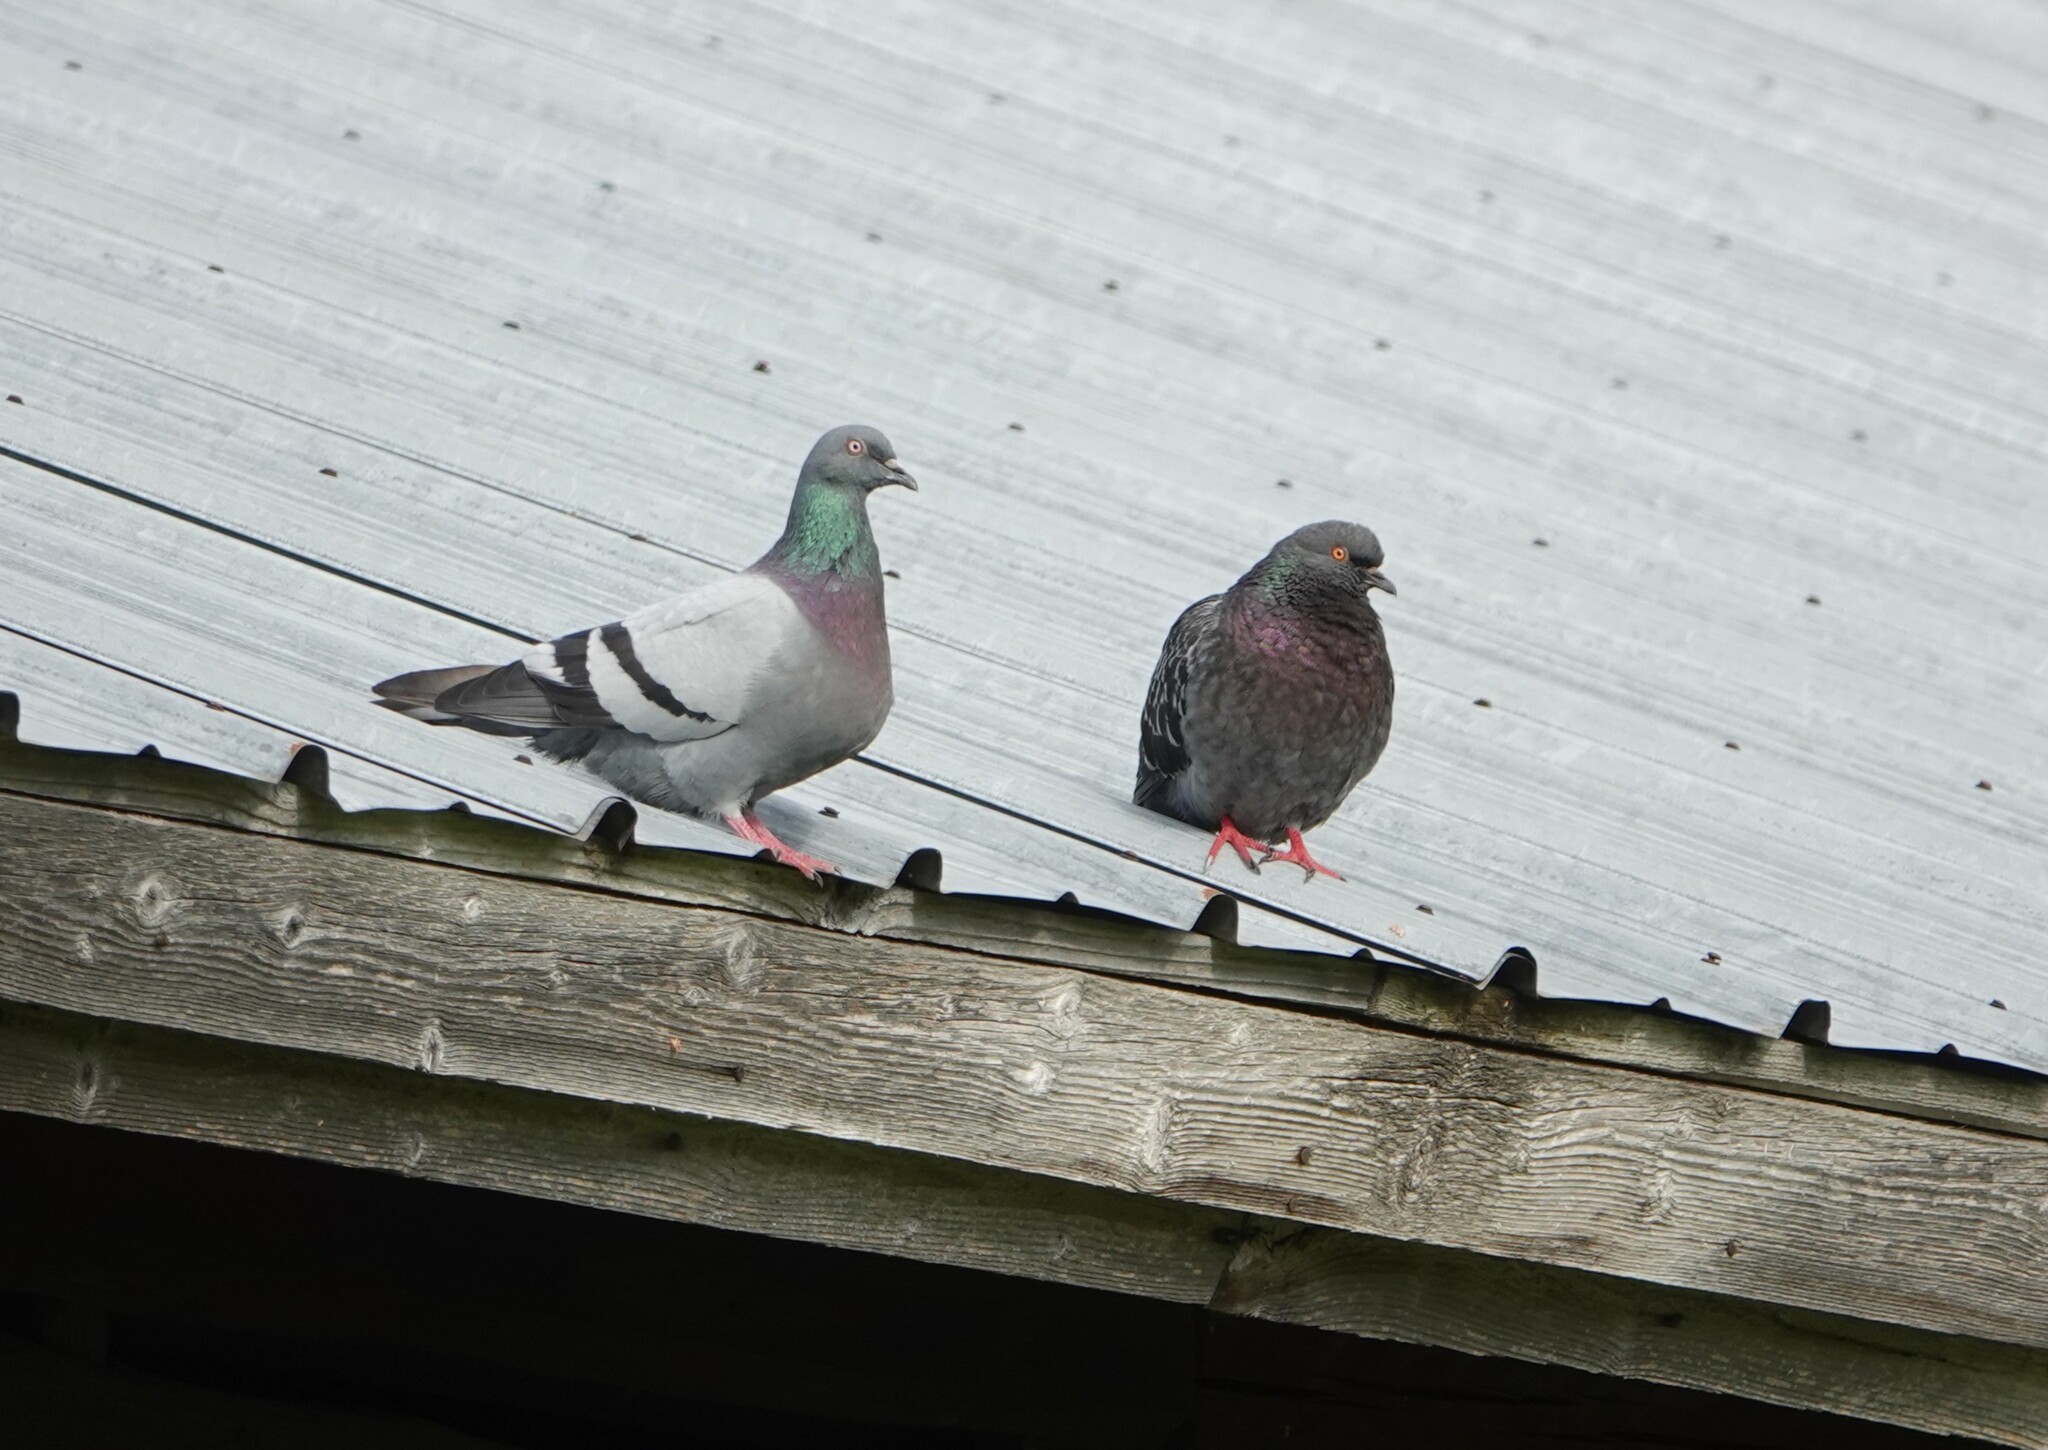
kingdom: Animalia
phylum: Chordata
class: Aves
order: Columbiformes
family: Columbidae
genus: Columba
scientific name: Columba livia
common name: Rock pigeon
